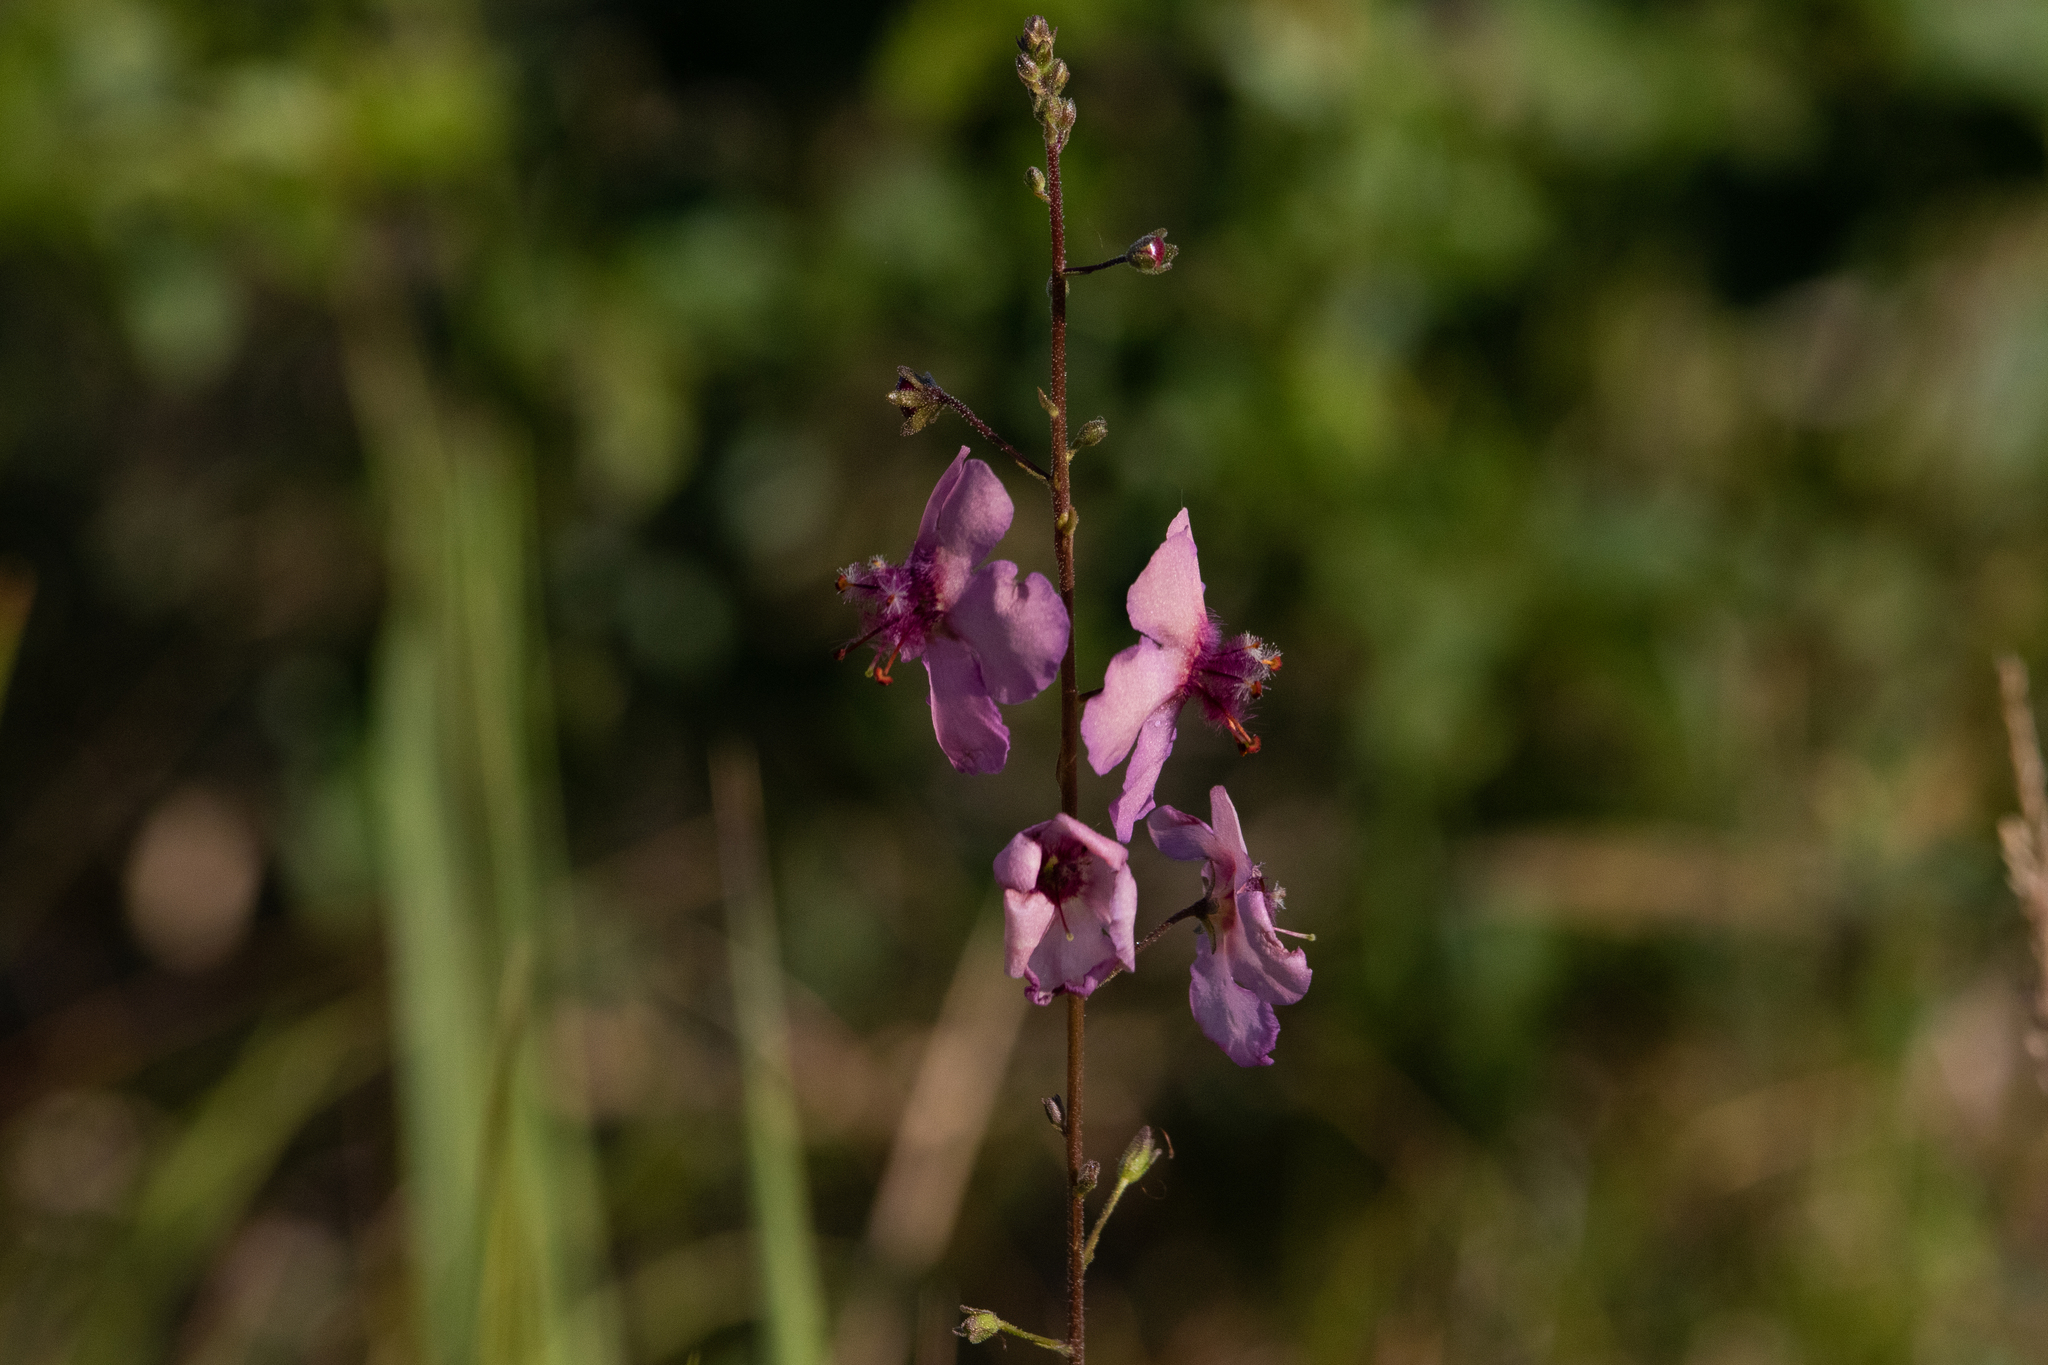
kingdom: Plantae
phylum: Tracheophyta
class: Magnoliopsida
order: Lamiales
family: Scrophulariaceae
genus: Verbascum
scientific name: Verbascum phoeniceum
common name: Purple mullein
